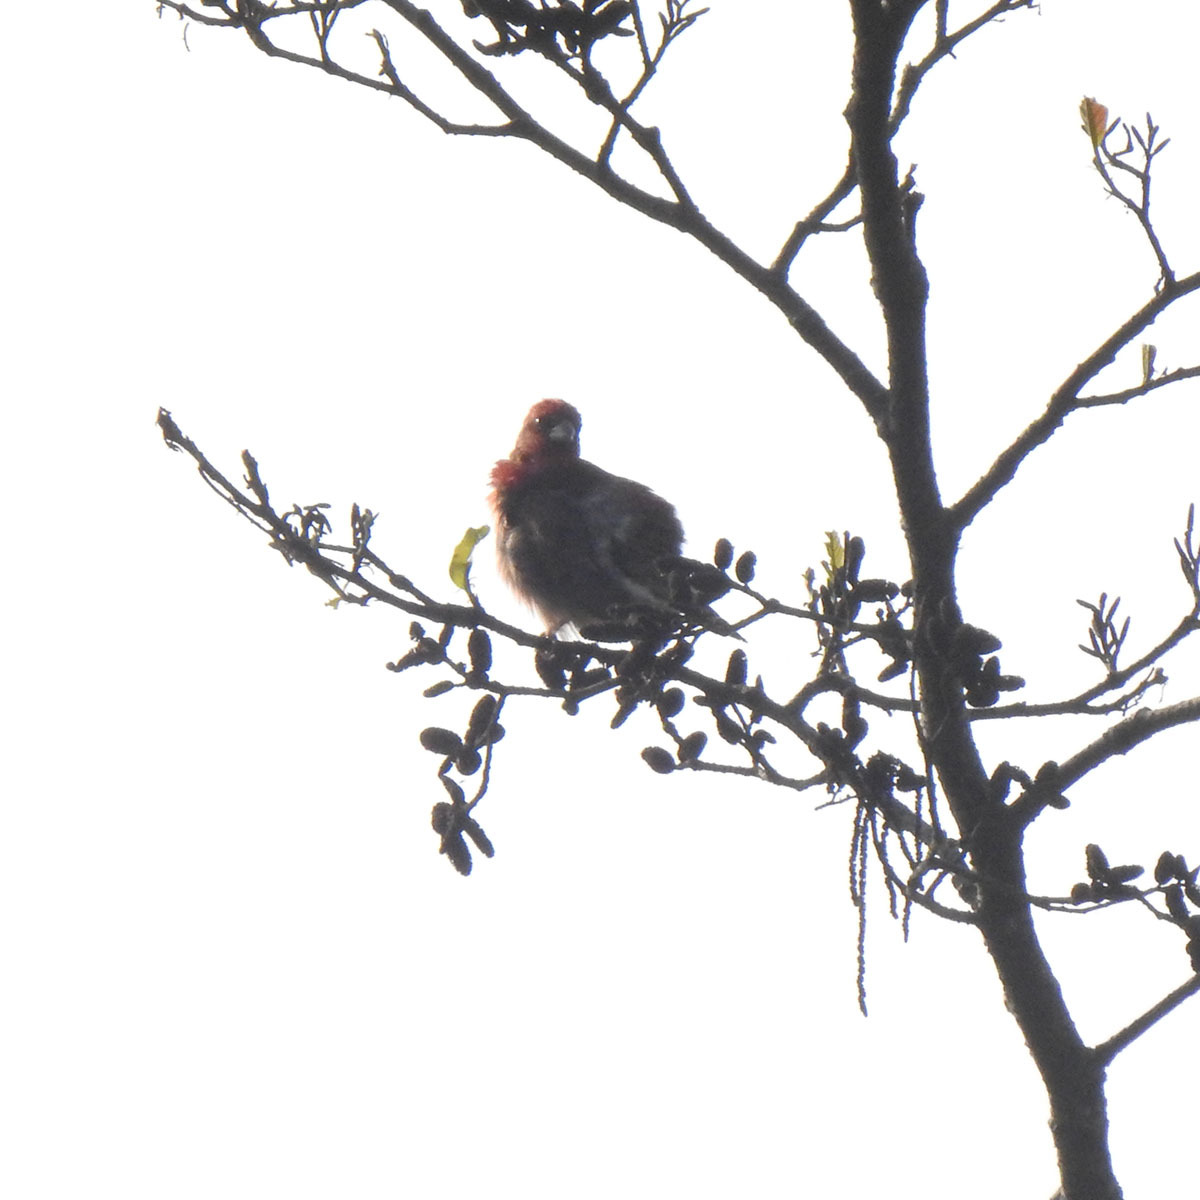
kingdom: Animalia
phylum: Chordata
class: Aves
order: Passeriformes
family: Fringillidae
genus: Carpodacus
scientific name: Carpodacus erythrinus
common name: Common rosefinch
